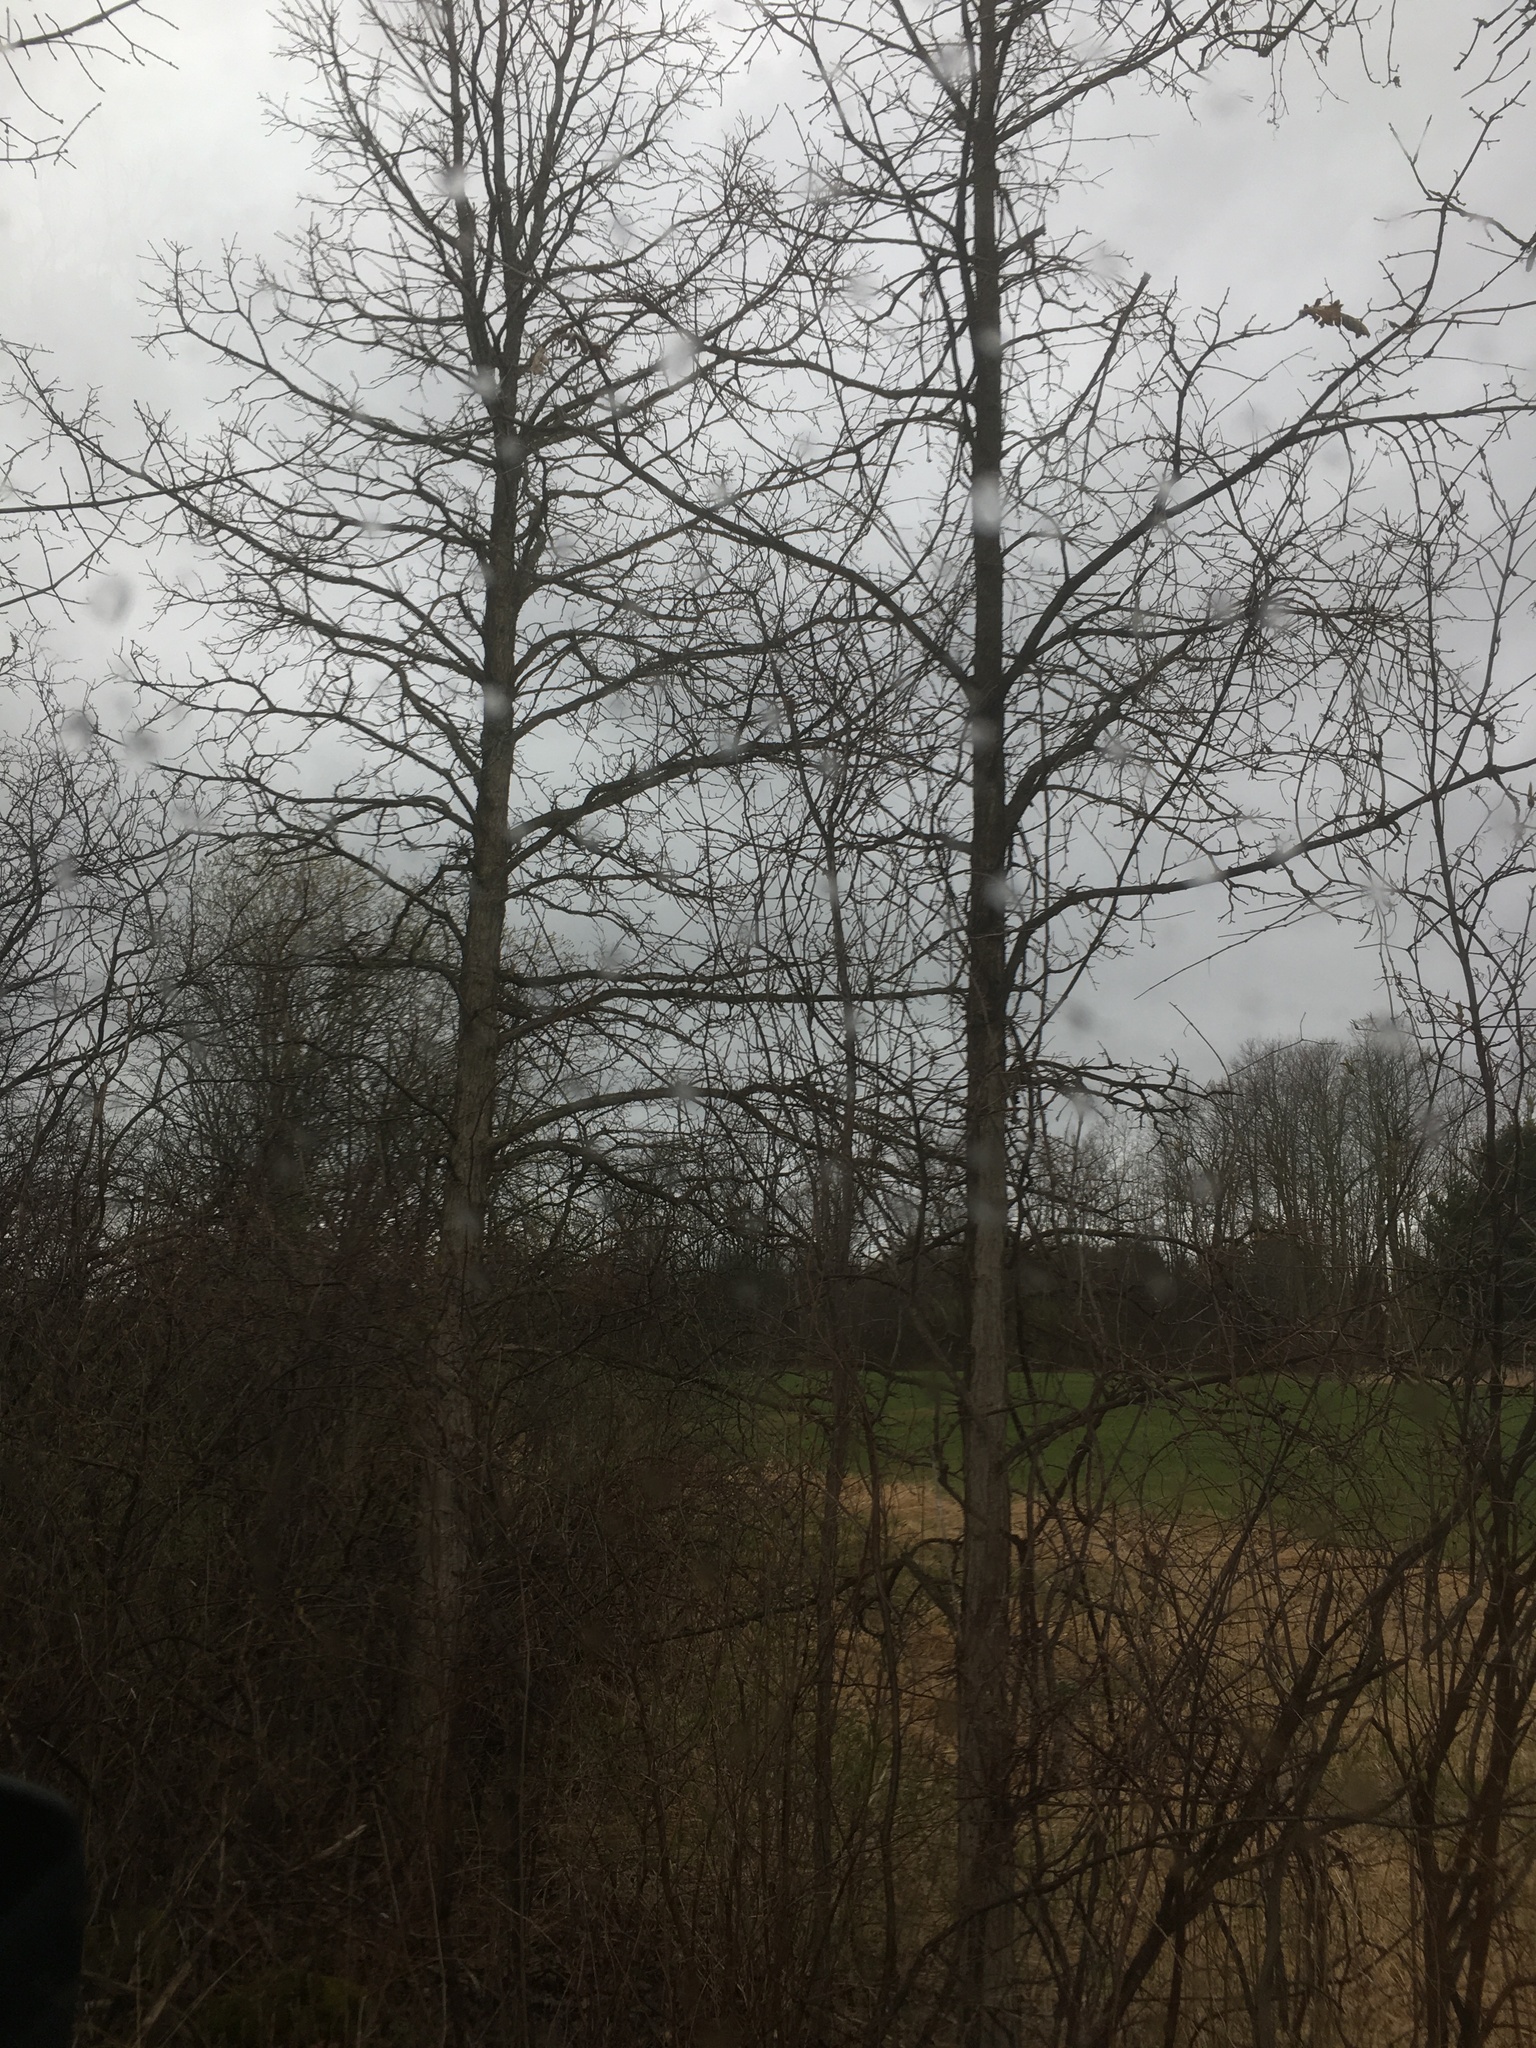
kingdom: Plantae
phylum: Tracheophyta
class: Magnoliopsida
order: Fagales
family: Fagaceae
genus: Quercus
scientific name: Quercus
